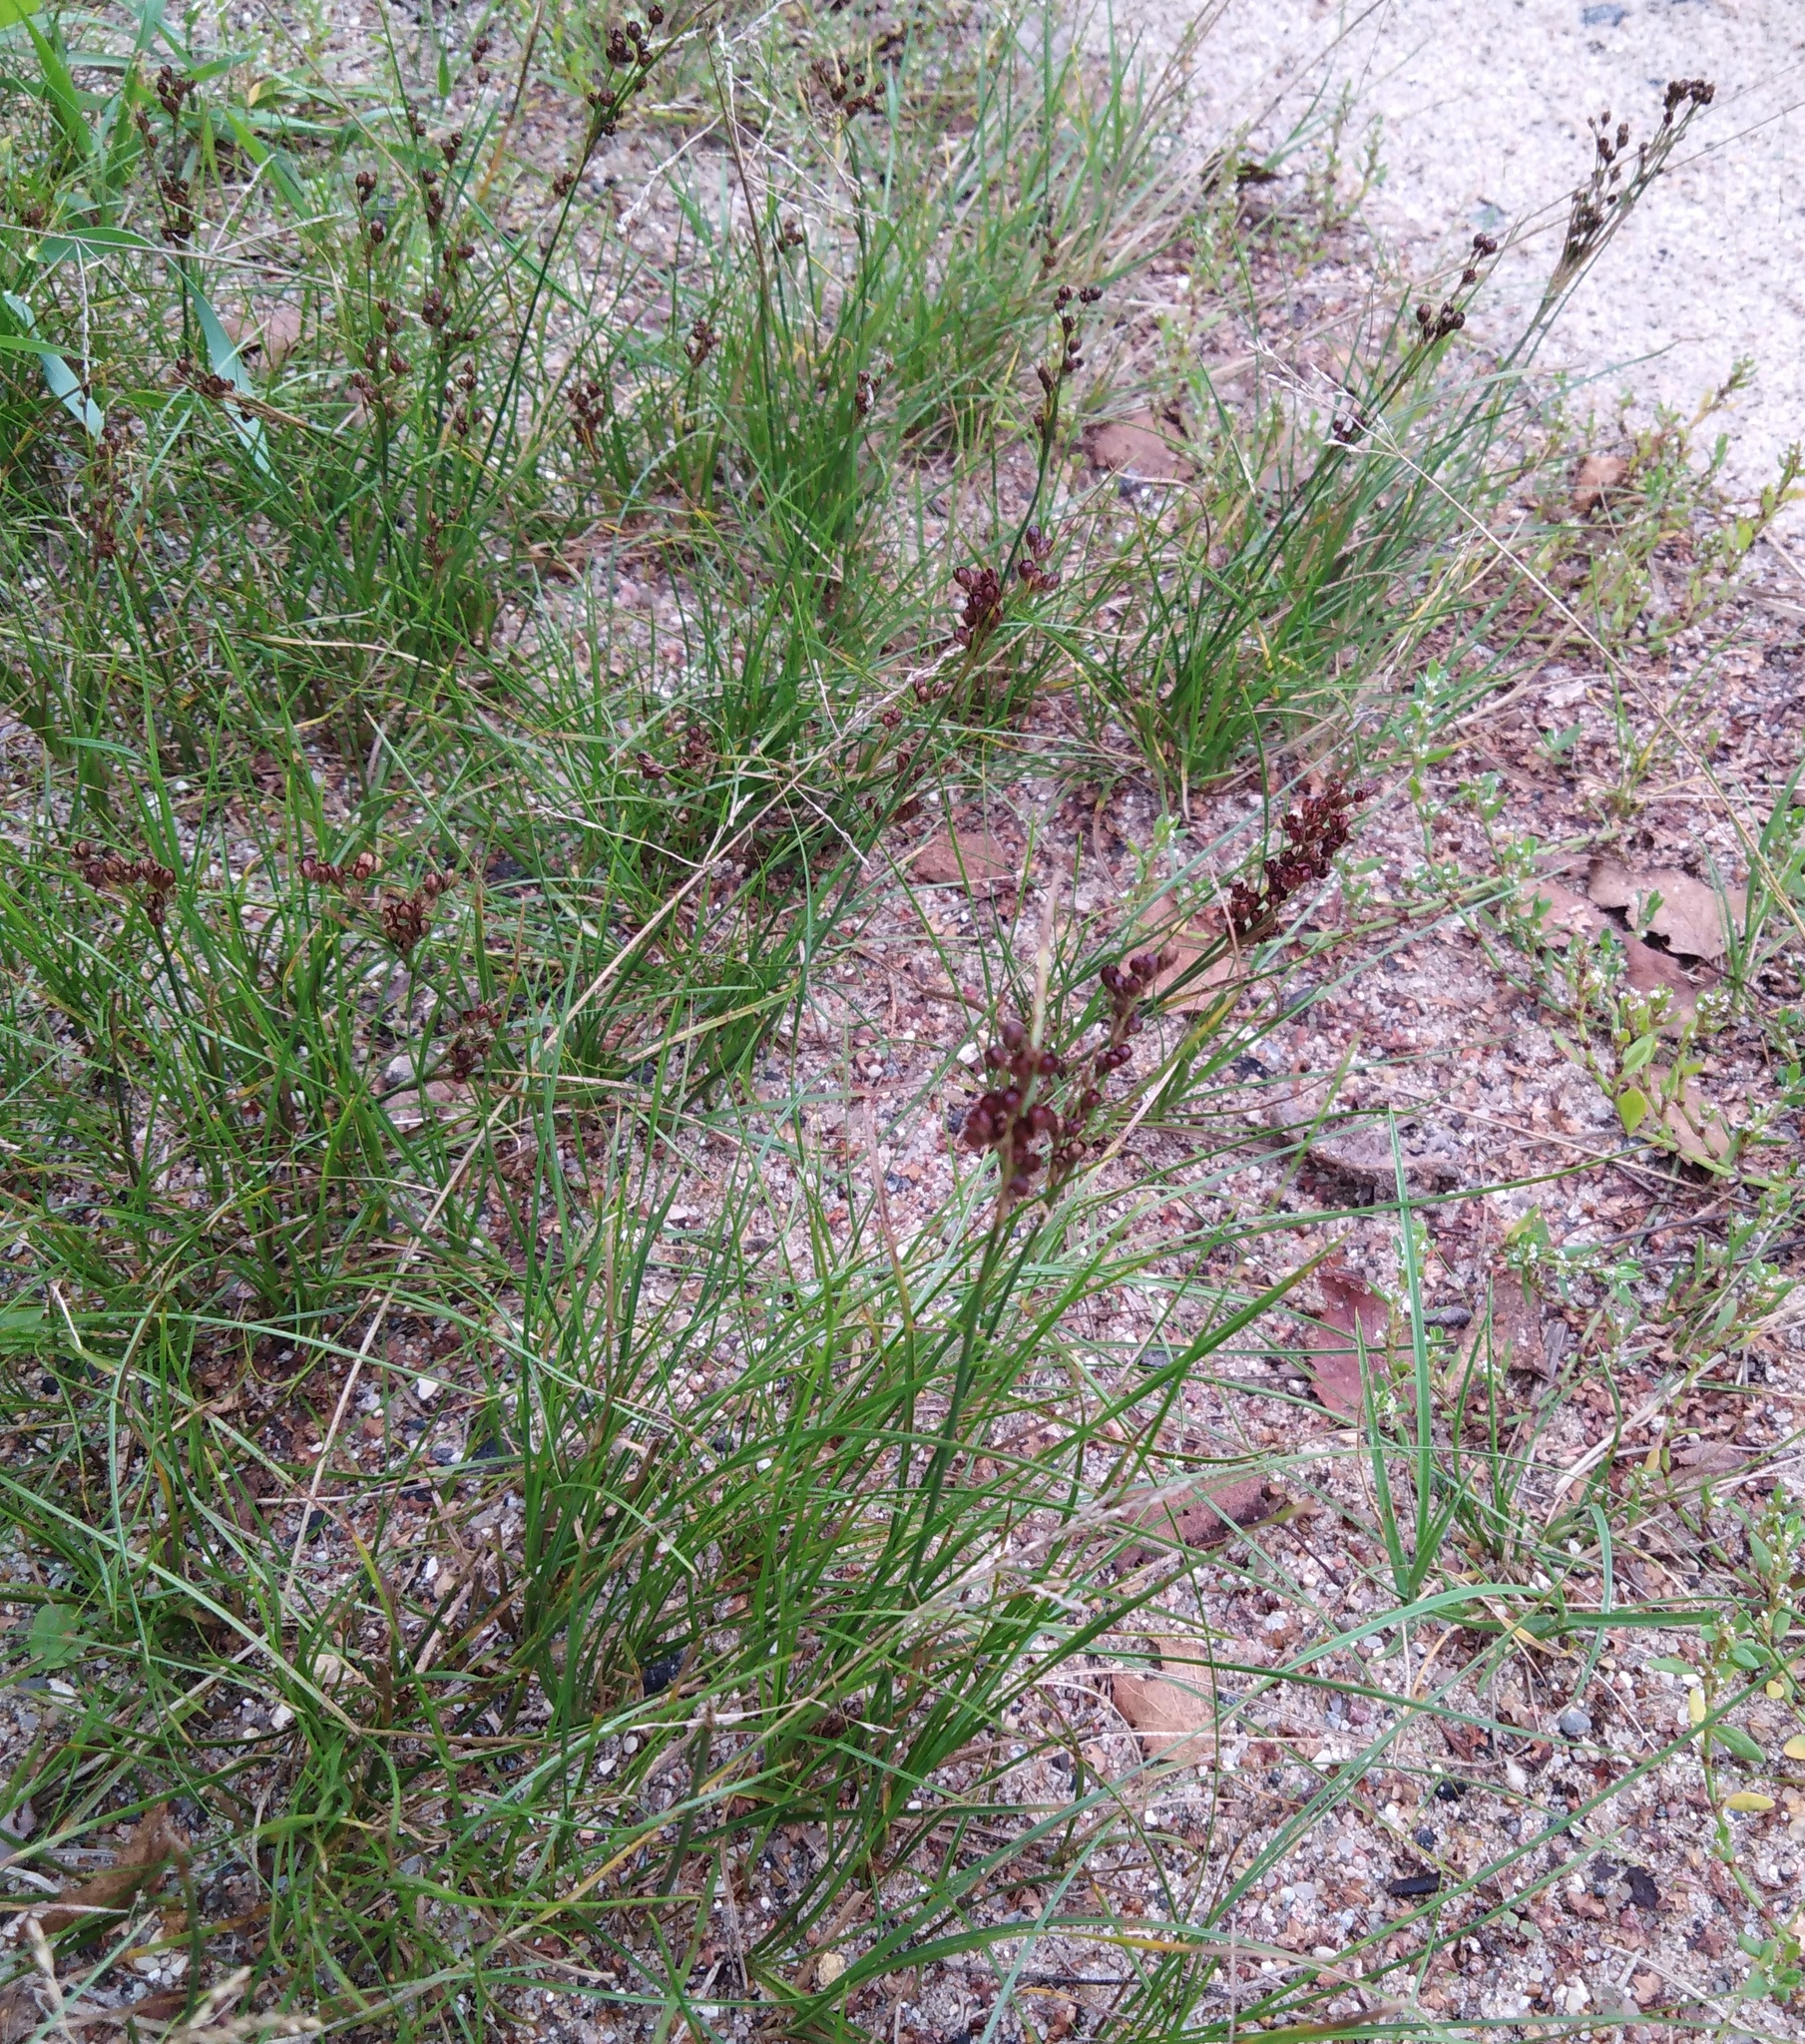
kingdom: Plantae
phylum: Tracheophyta
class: Liliopsida
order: Poales
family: Juncaceae
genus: Juncus
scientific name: Juncus compressus
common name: Round-fruited rush
